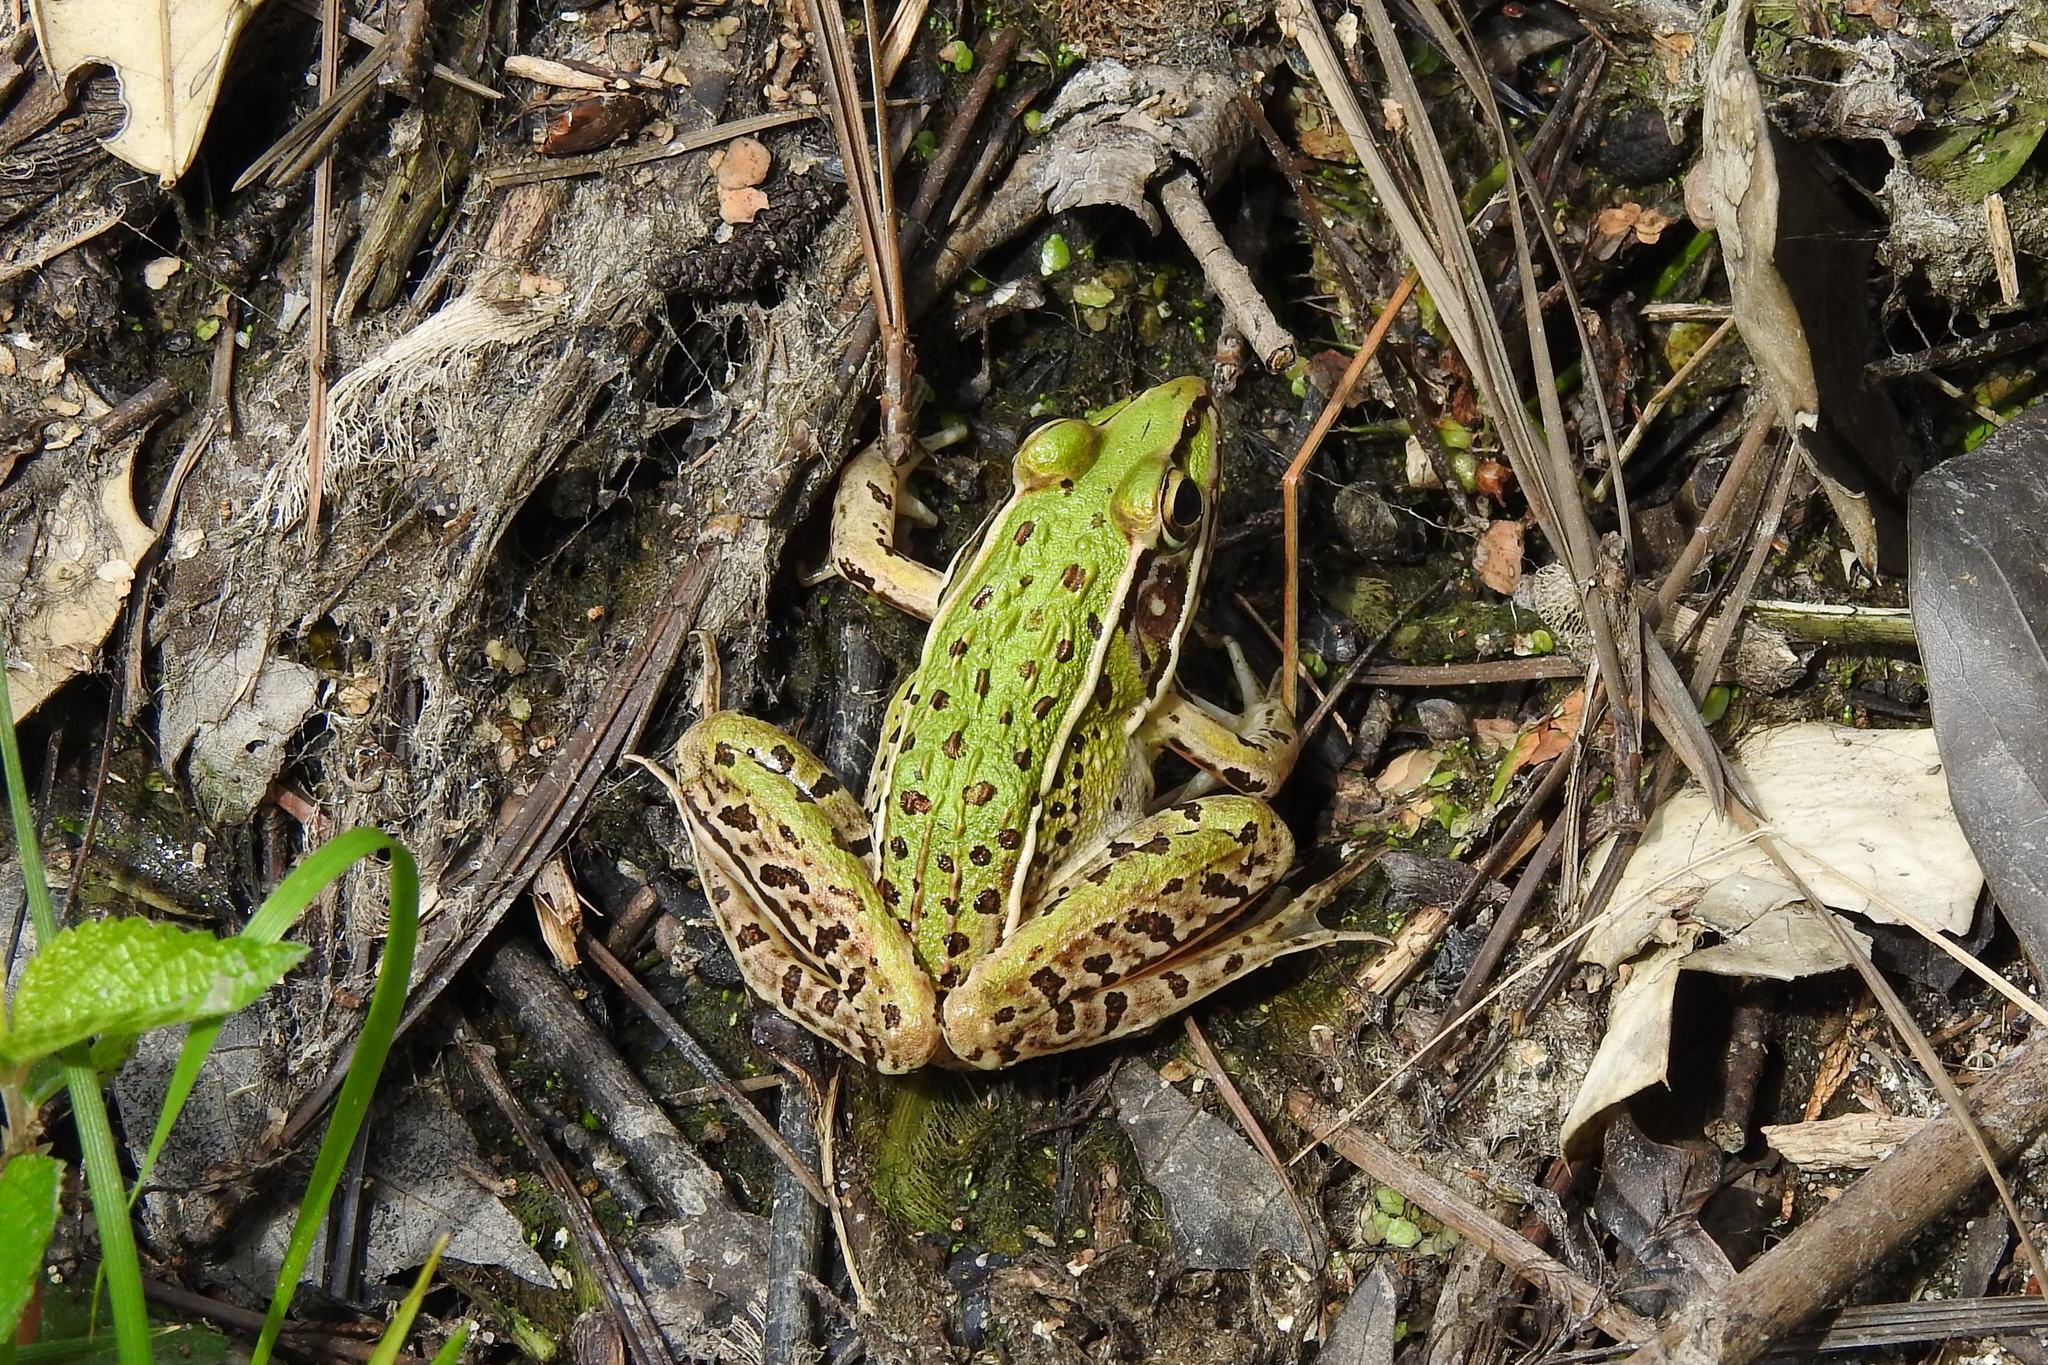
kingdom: Animalia
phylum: Chordata
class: Amphibia
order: Anura
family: Ranidae
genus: Lithobates
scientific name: Lithobates sphenocephalus
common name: Southern leopard frog
